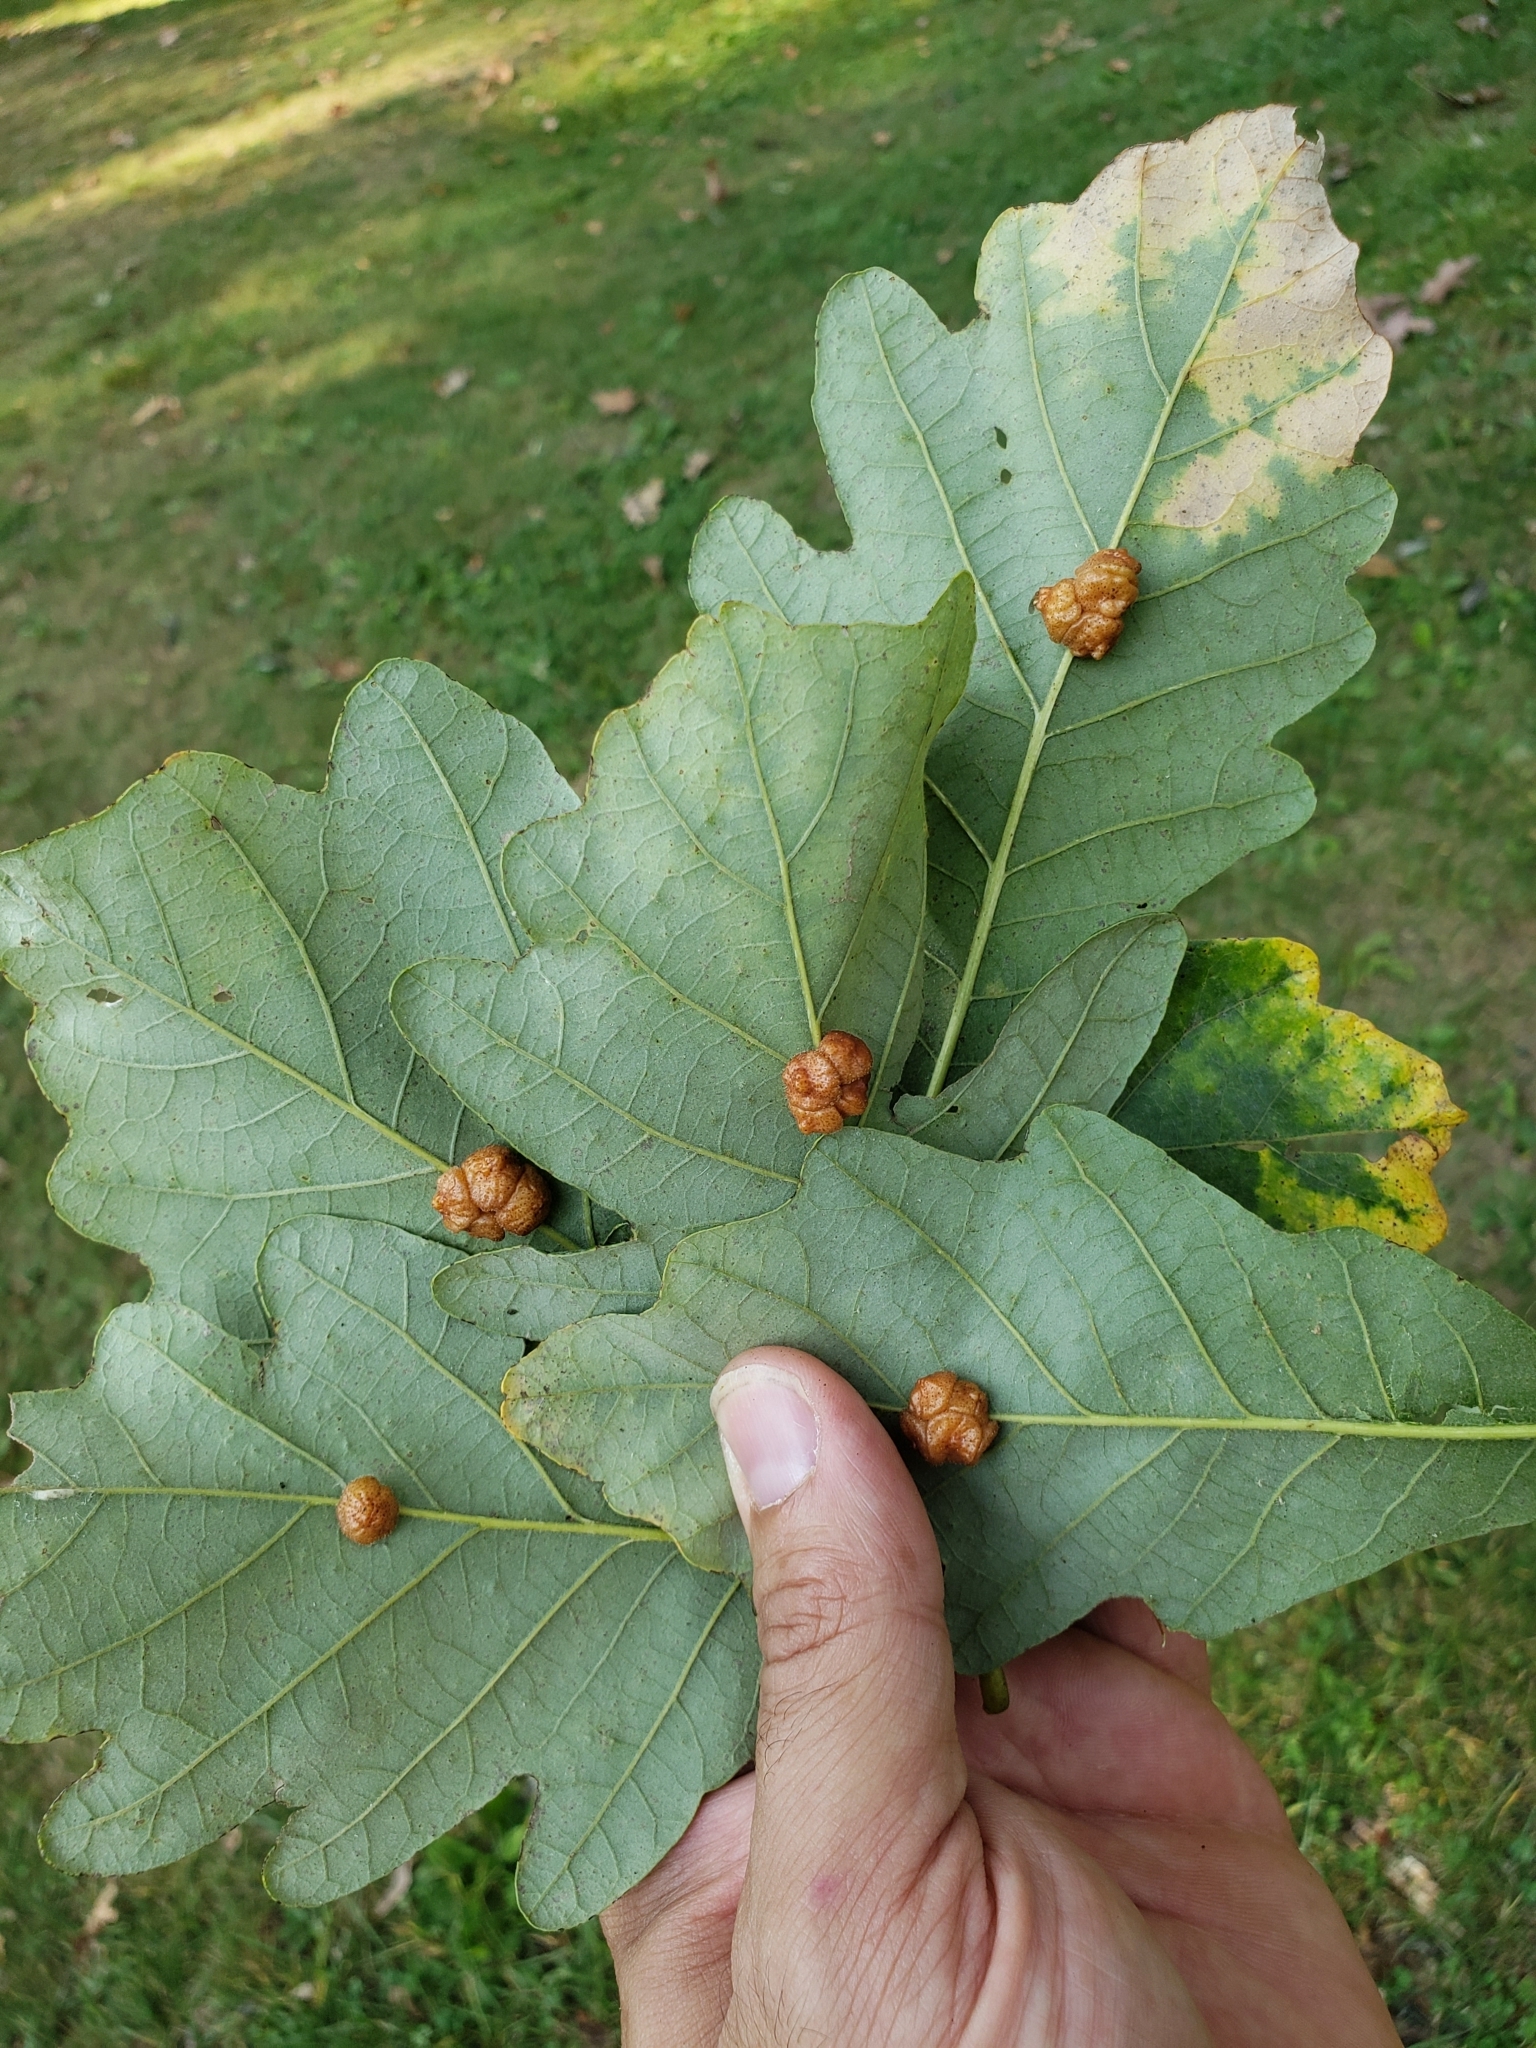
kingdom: Animalia
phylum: Arthropoda
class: Insecta
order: Hymenoptera
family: Cynipidae
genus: Andricus
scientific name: Andricus
